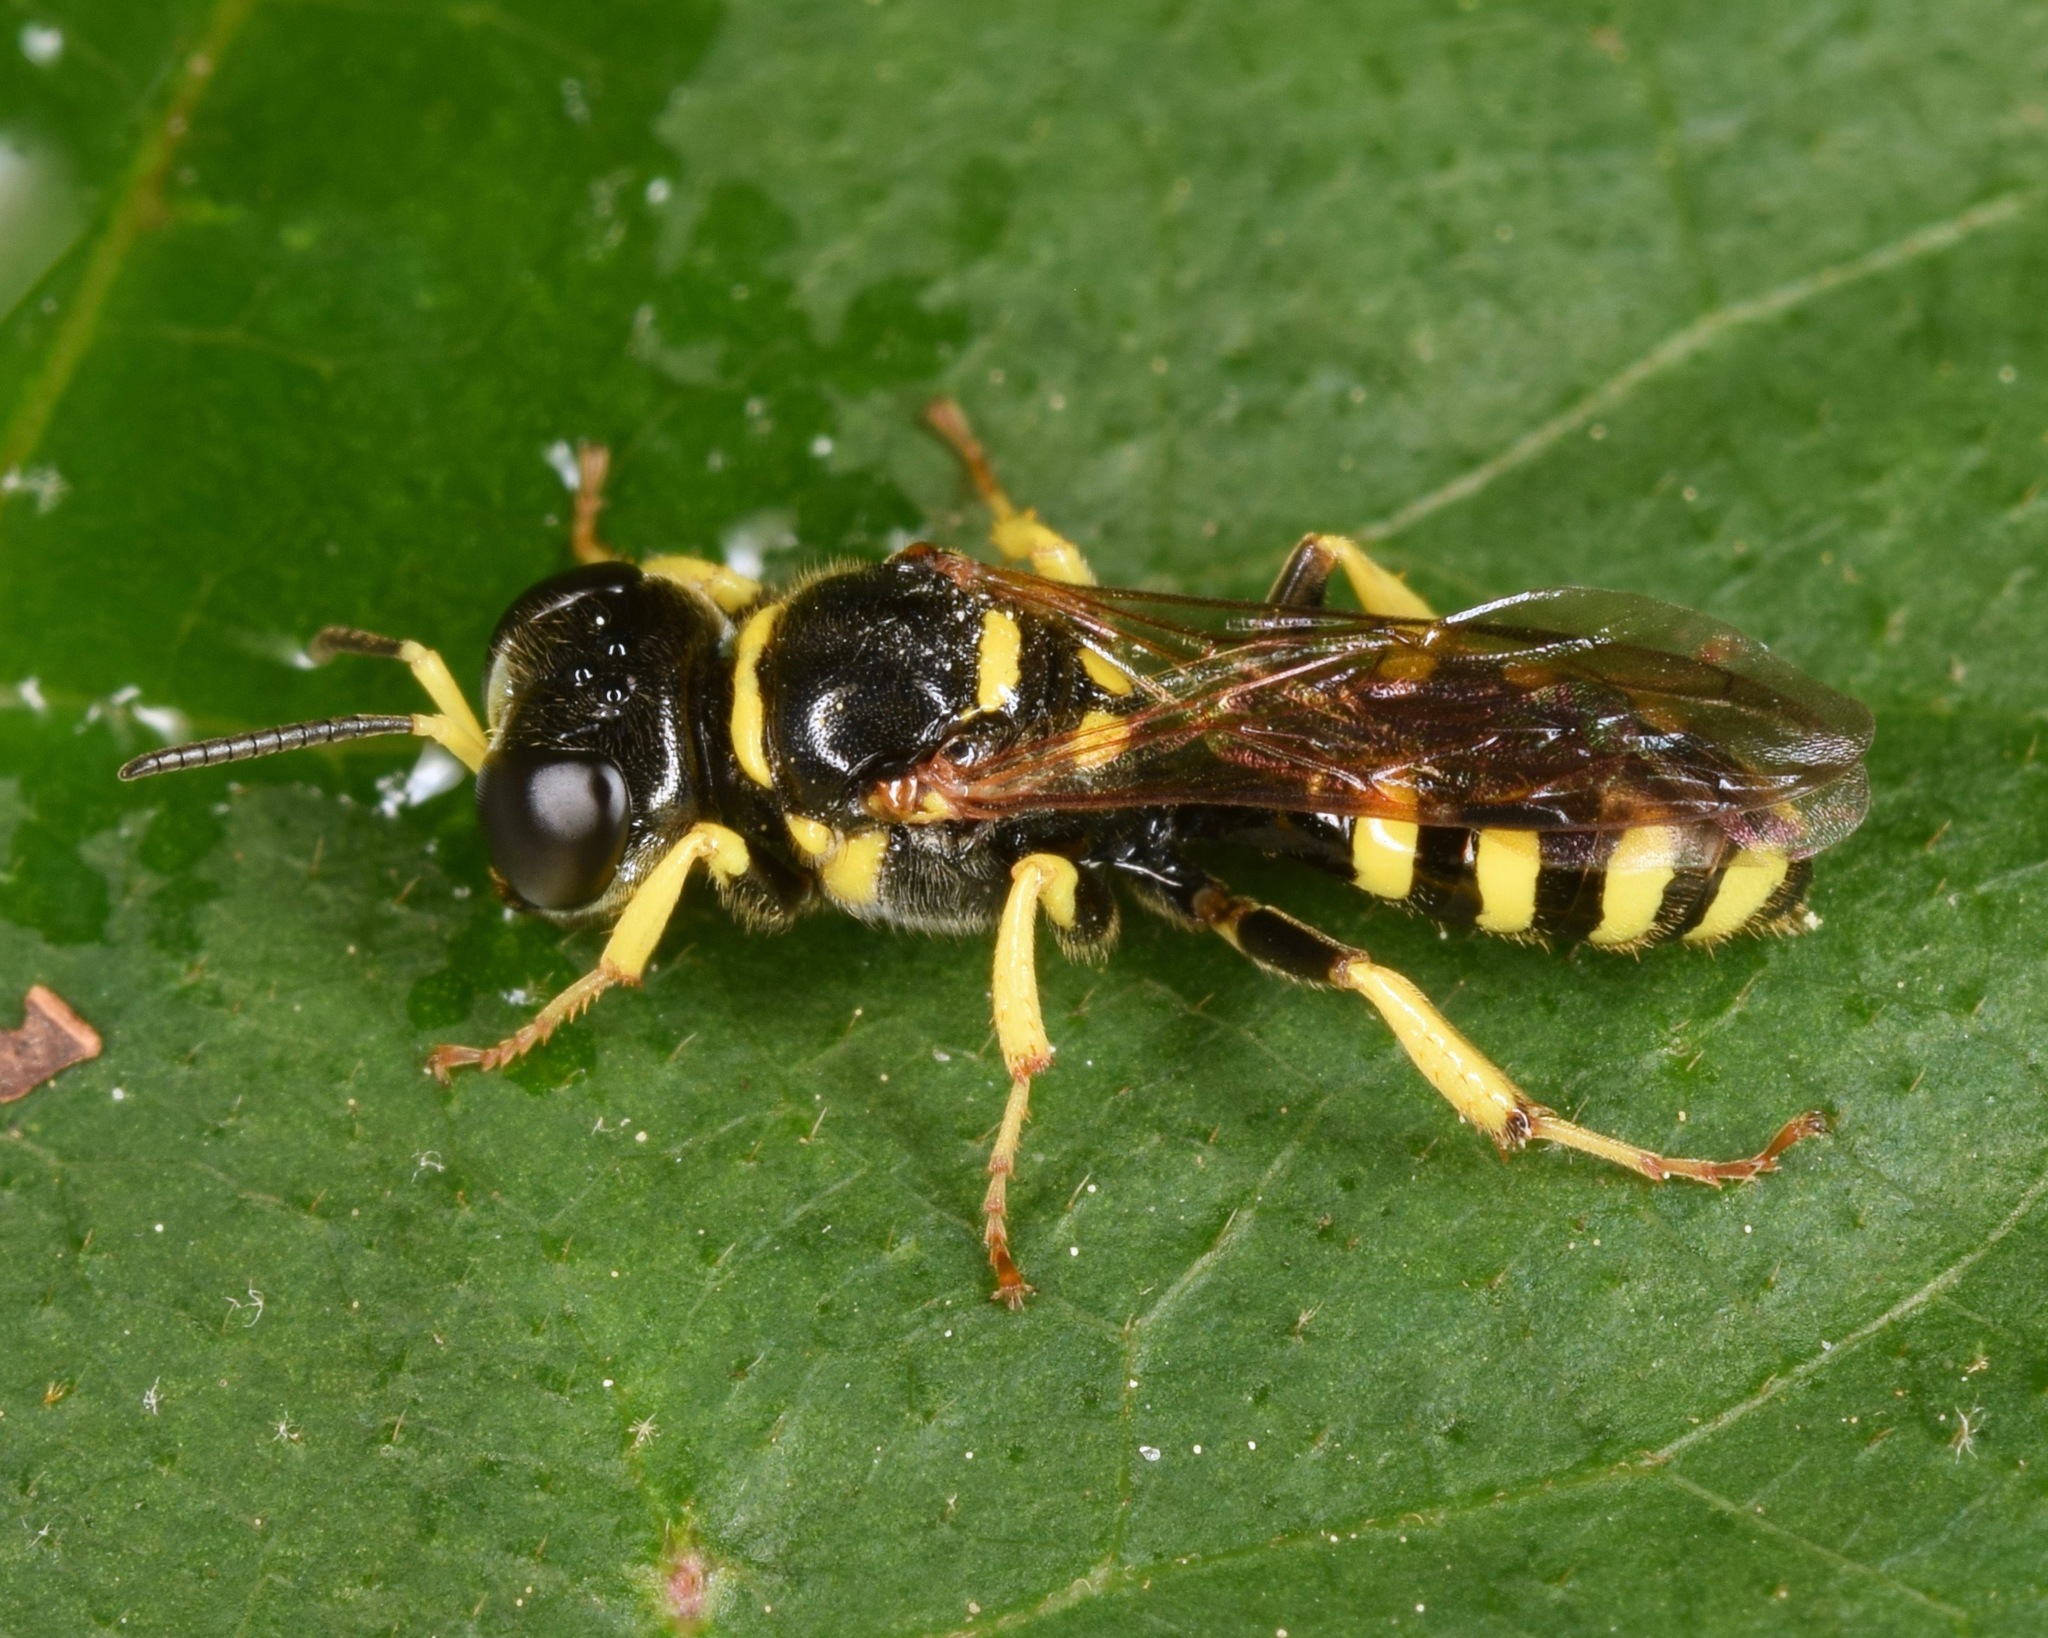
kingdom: Animalia
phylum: Arthropoda
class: Insecta
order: Hymenoptera
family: Crabronidae
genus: Crossocerus
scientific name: Crossocerus nitidiventris
